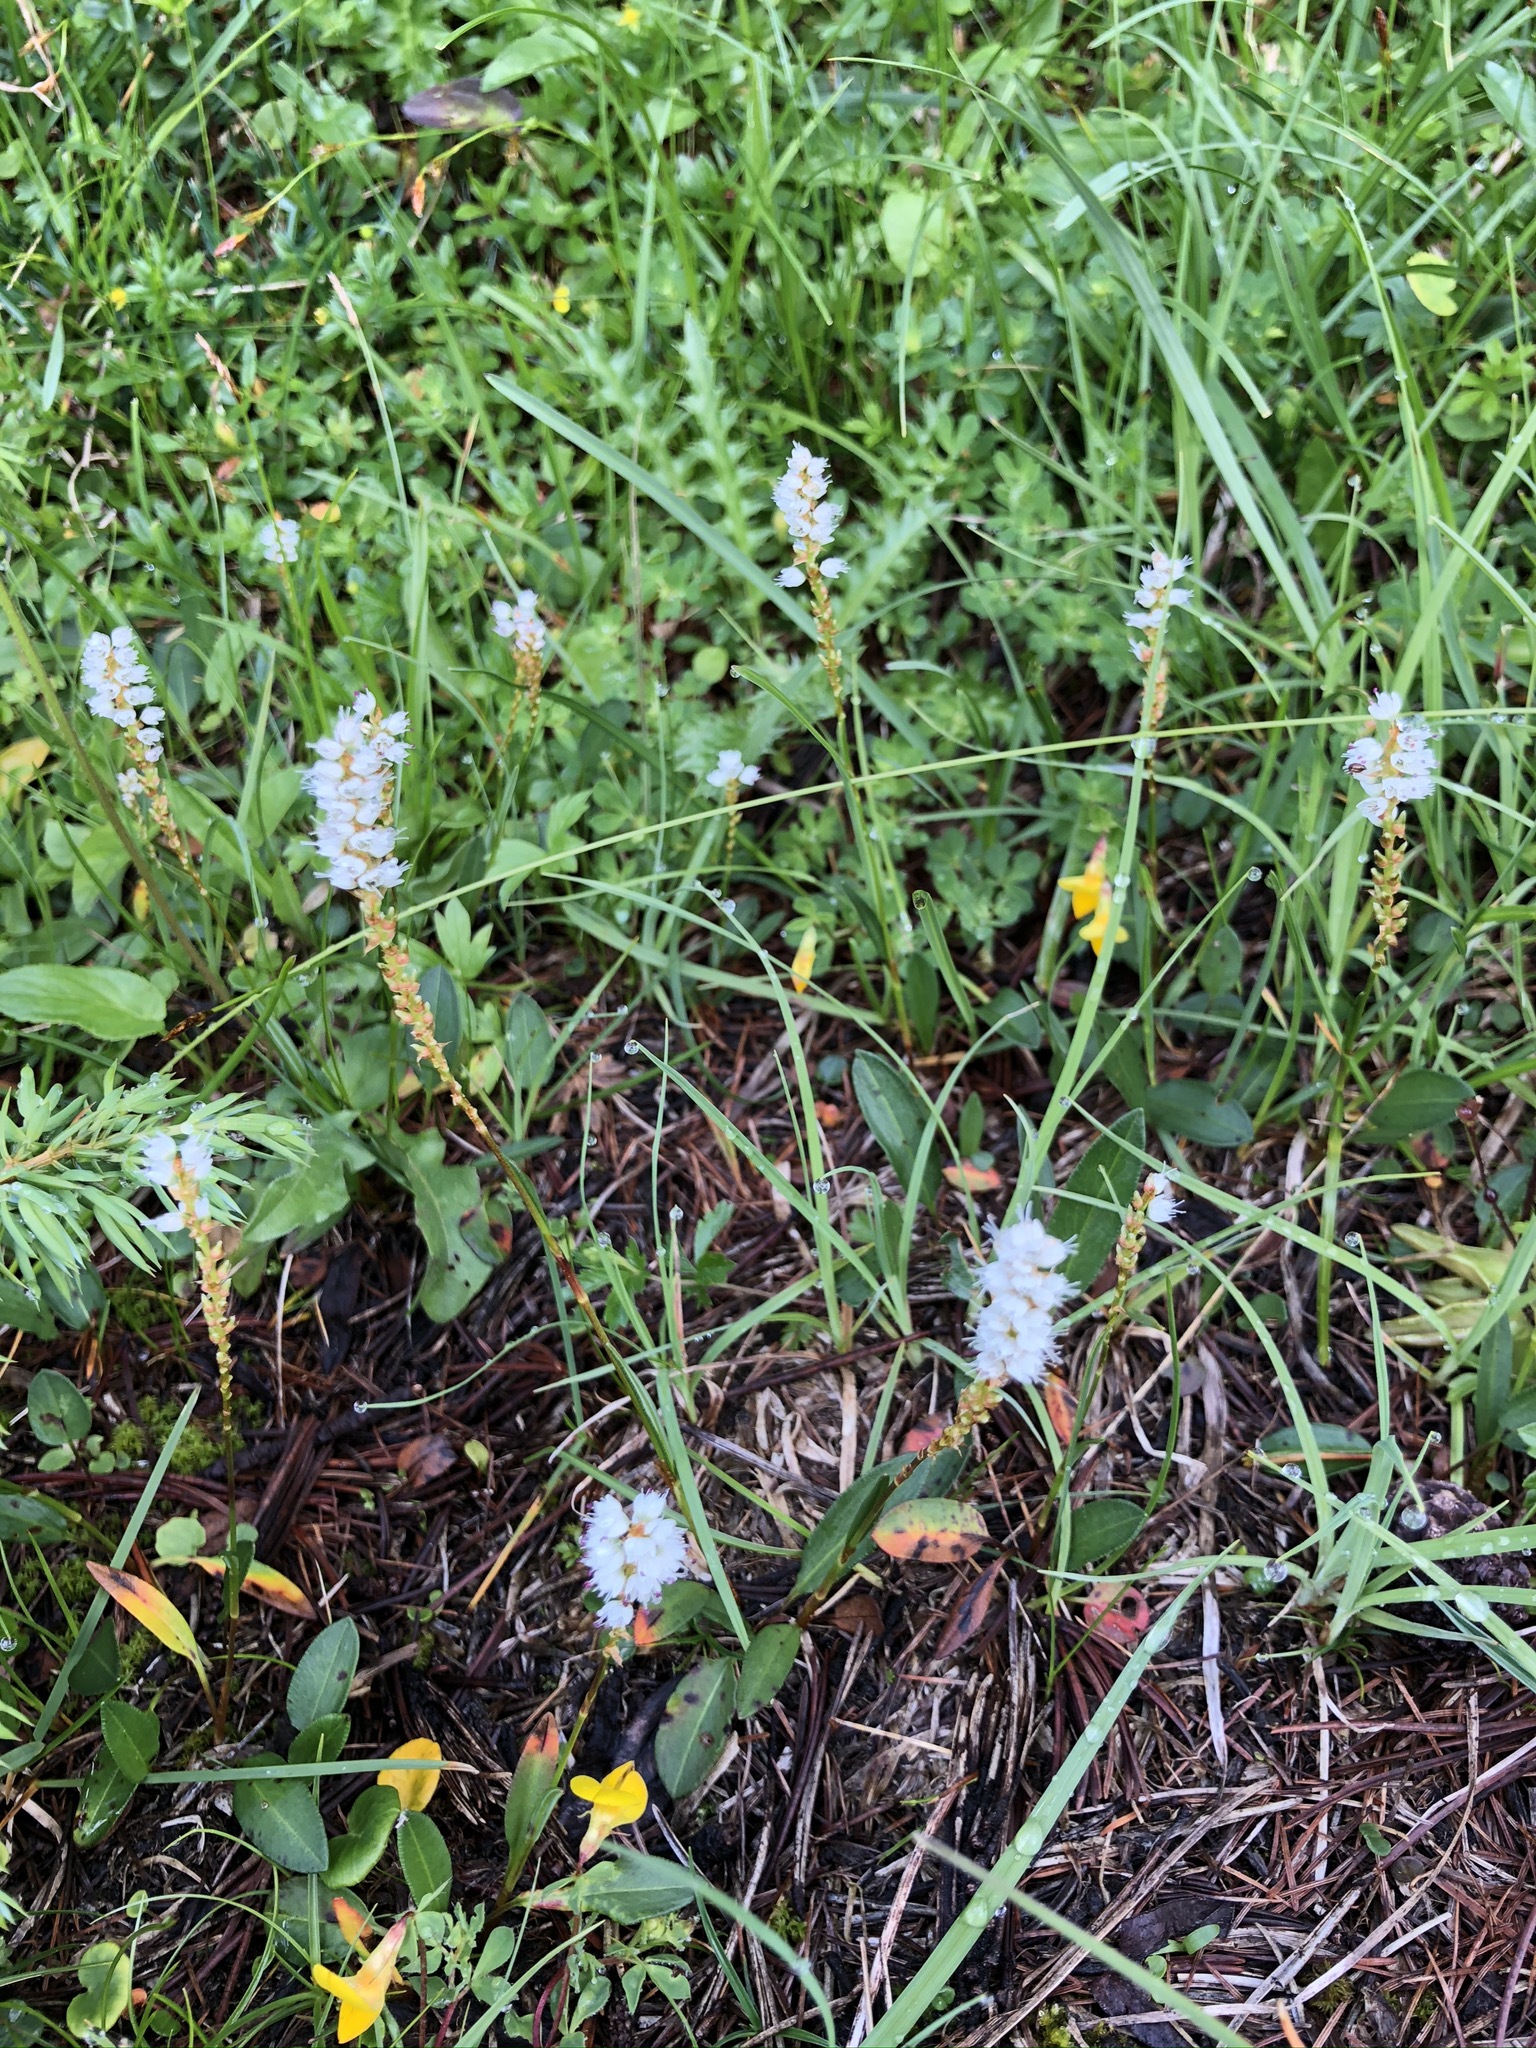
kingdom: Plantae
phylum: Tracheophyta
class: Magnoliopsida
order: Caryophyllales
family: Polygonaceae
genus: Bistorta
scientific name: Bistorta vivipara
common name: Alpine bistort
